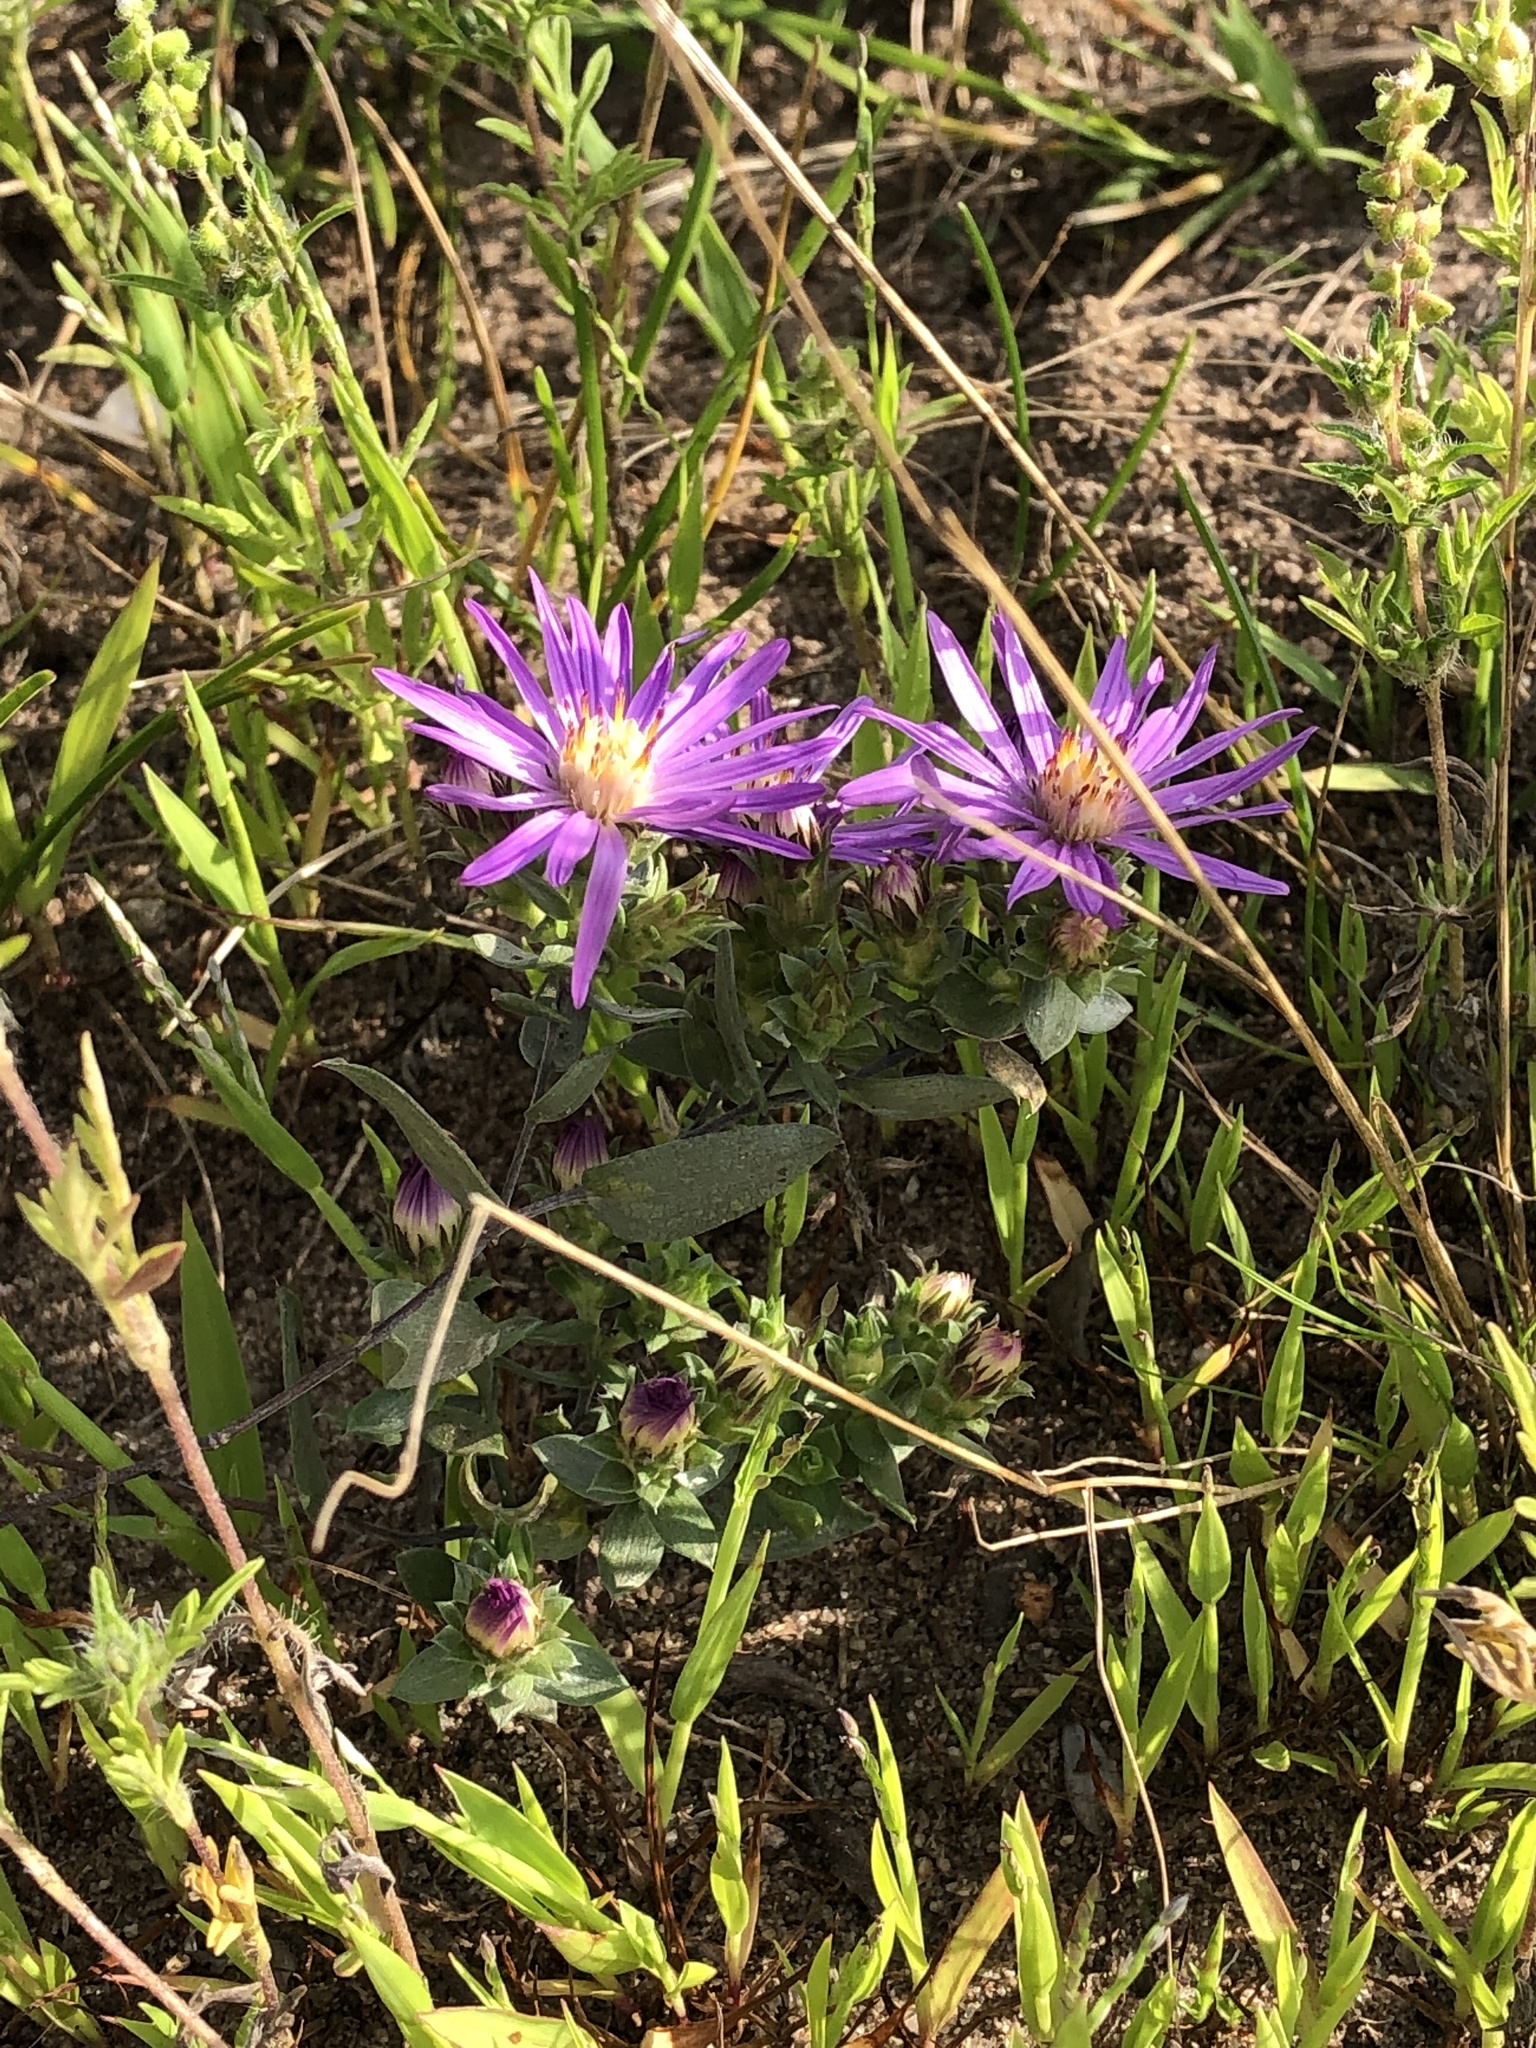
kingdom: Plantae
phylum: Tracheophyta
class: Magnoliopsida
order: Asterales
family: Asteraceae
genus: Symphyotrichum
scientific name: Symphyotrichum sericeum
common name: Silky aster
